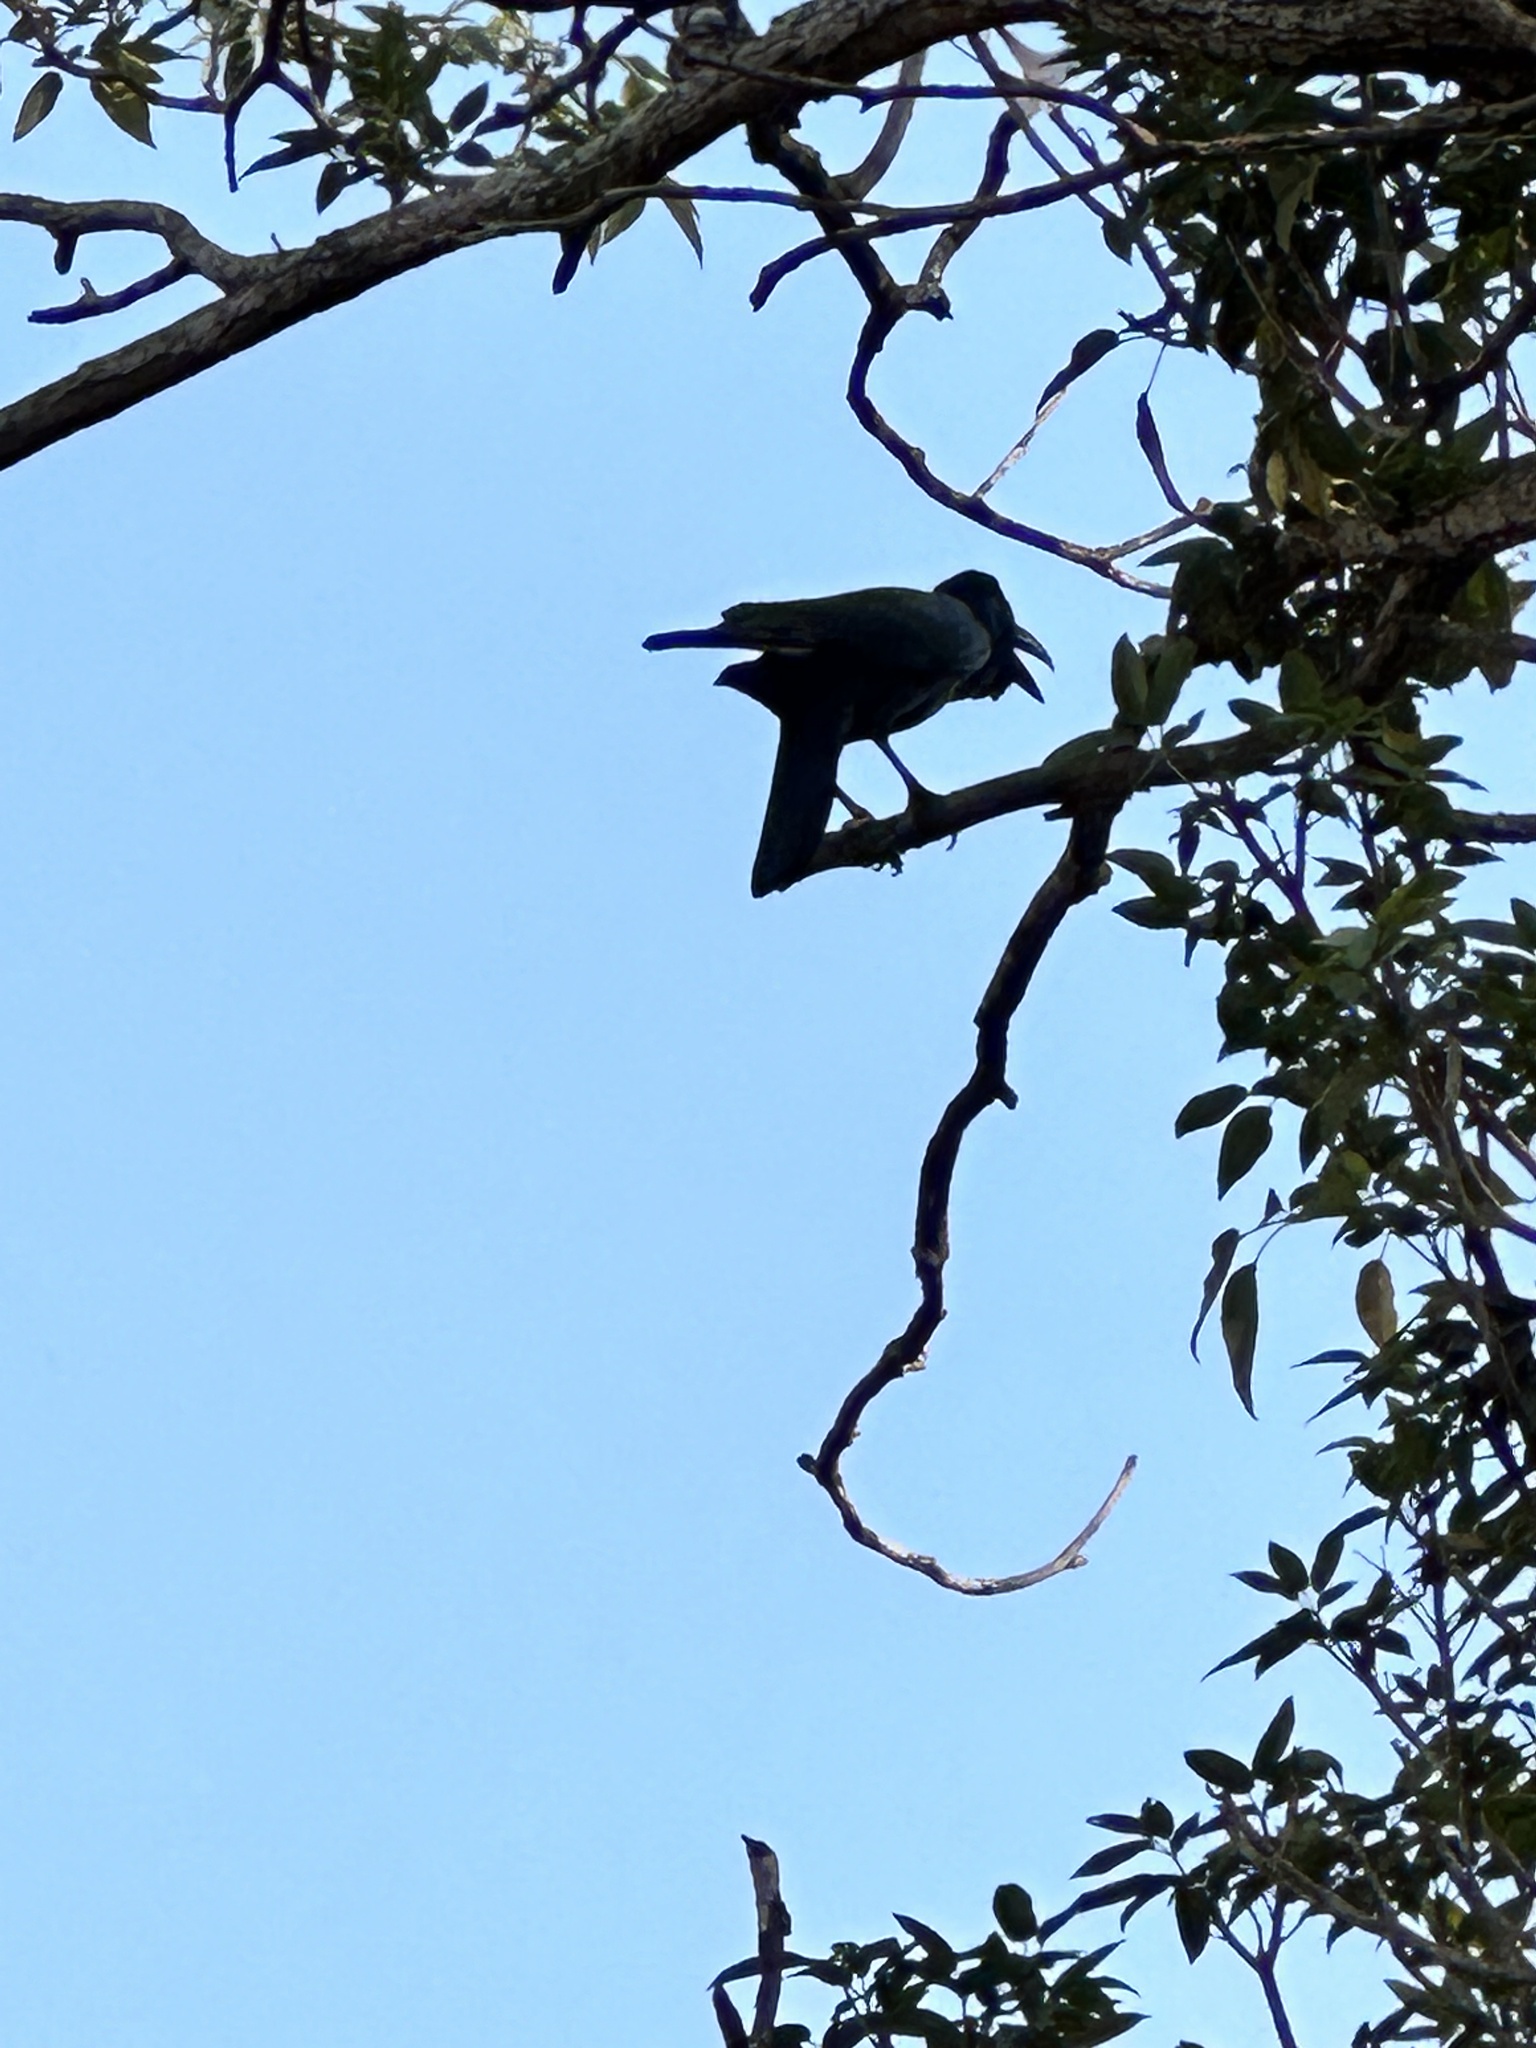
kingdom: Animalia
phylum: Chordata
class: Aves
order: Passeriformes
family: Corvidae
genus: Corvus
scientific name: Corvus macrorhynchos
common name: Large-billed crow
